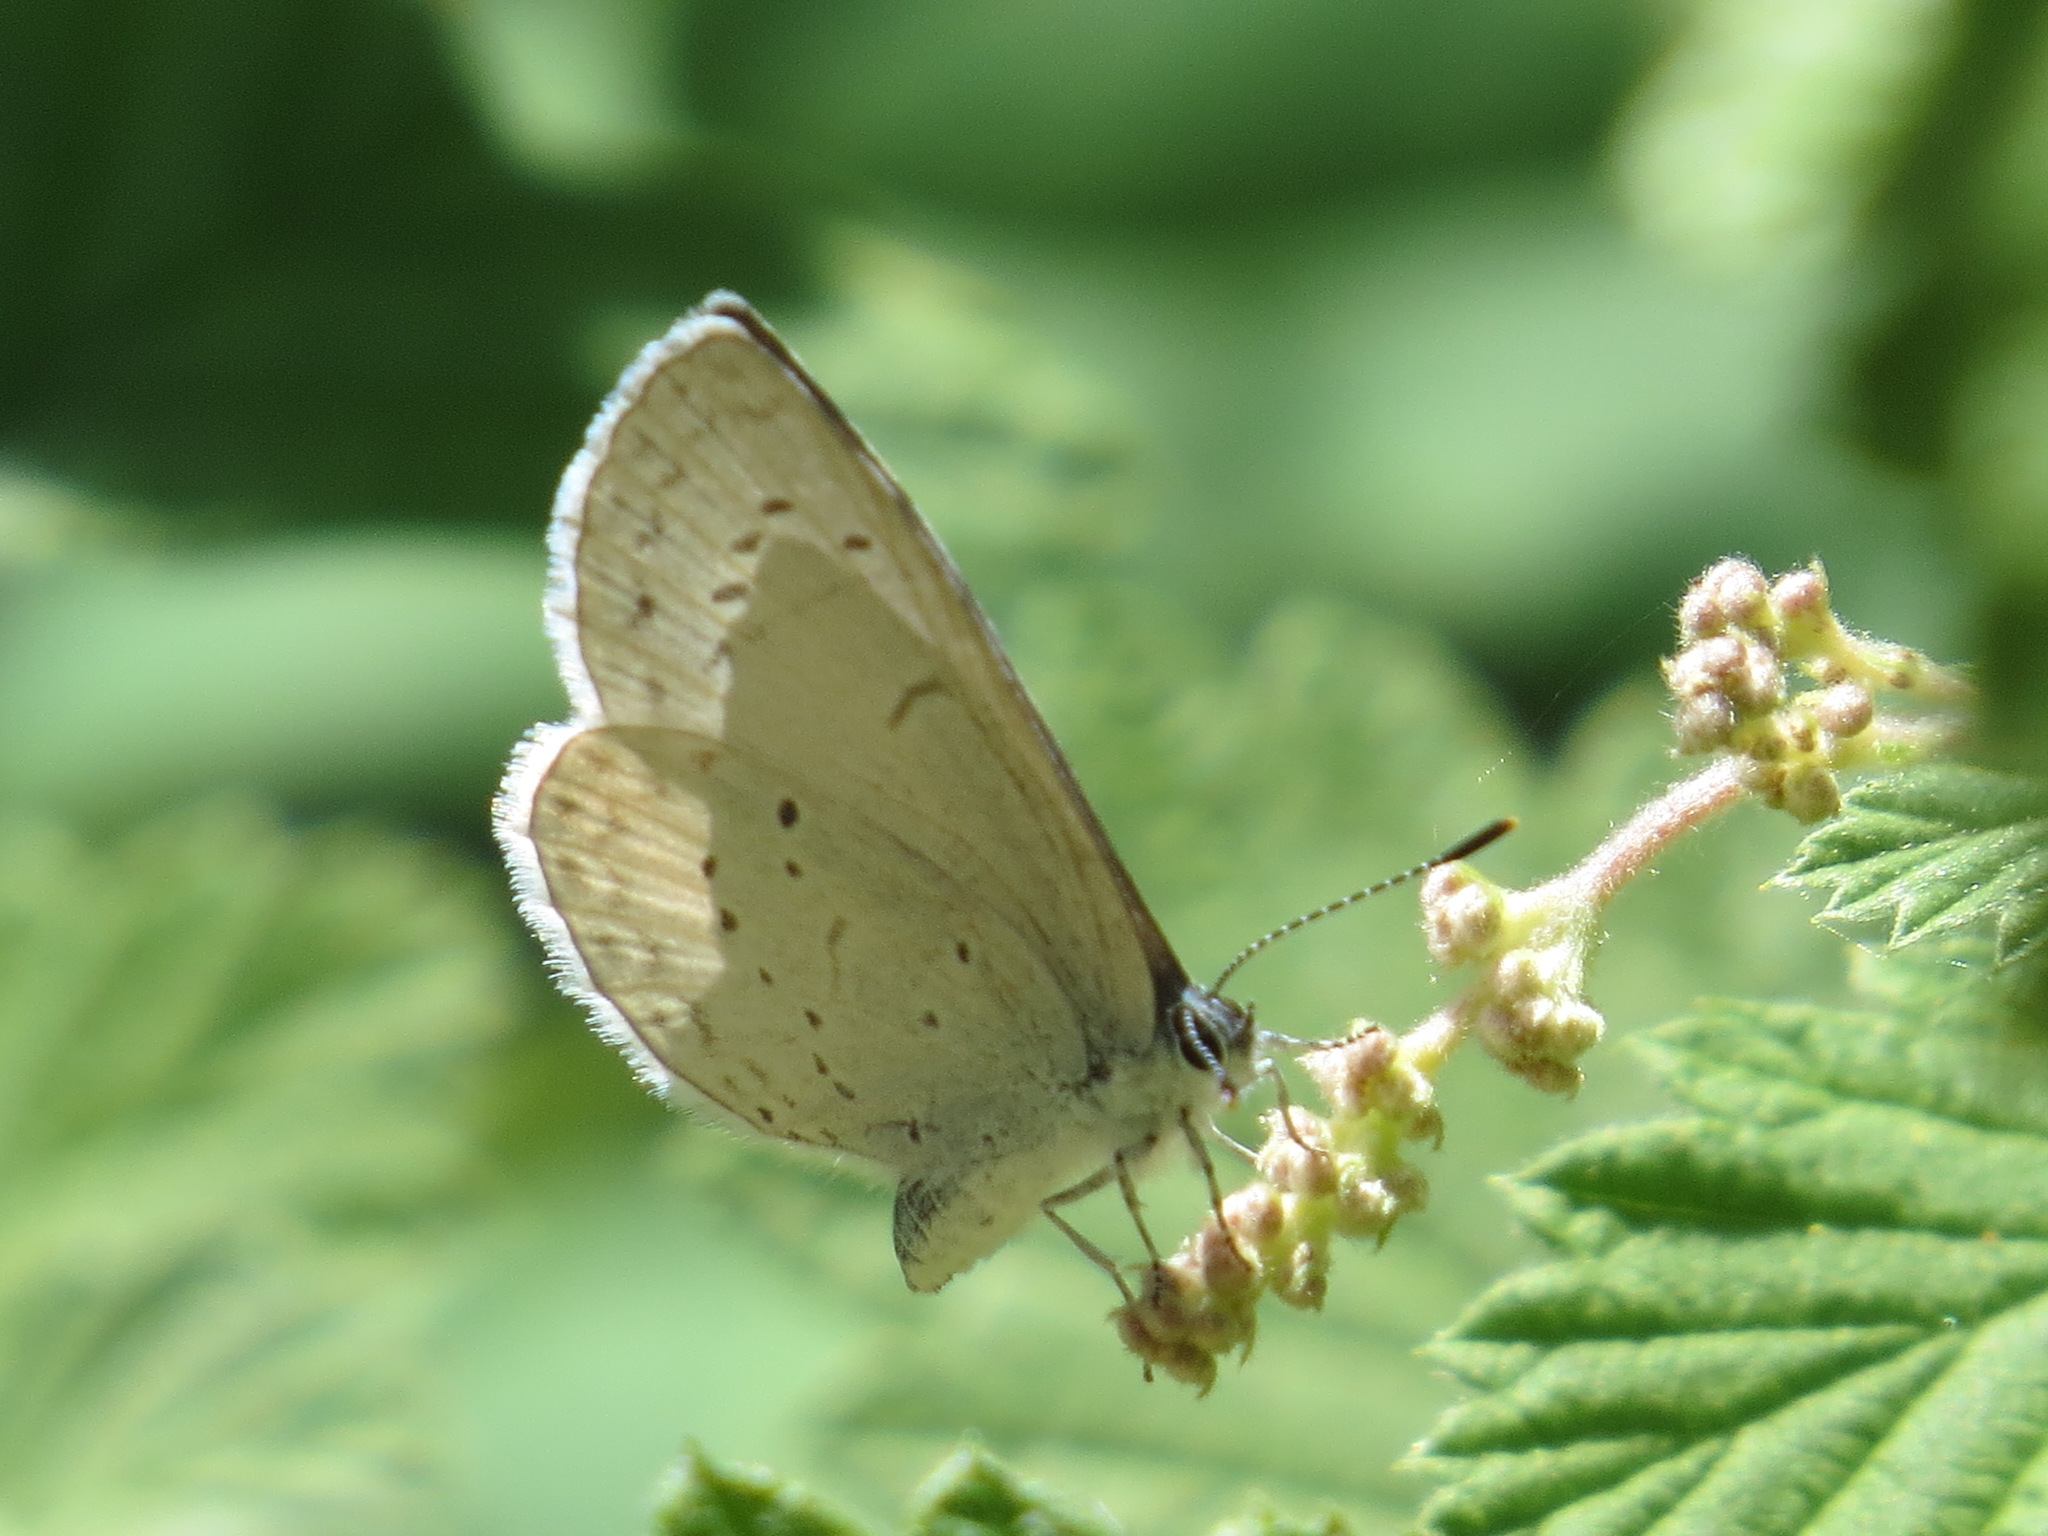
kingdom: Animalia
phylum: Arthropoda
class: Insecta
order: Lepidoptera
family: Lycaenidae
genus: Celastrina
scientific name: Celastrina ladon
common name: Spring azure
